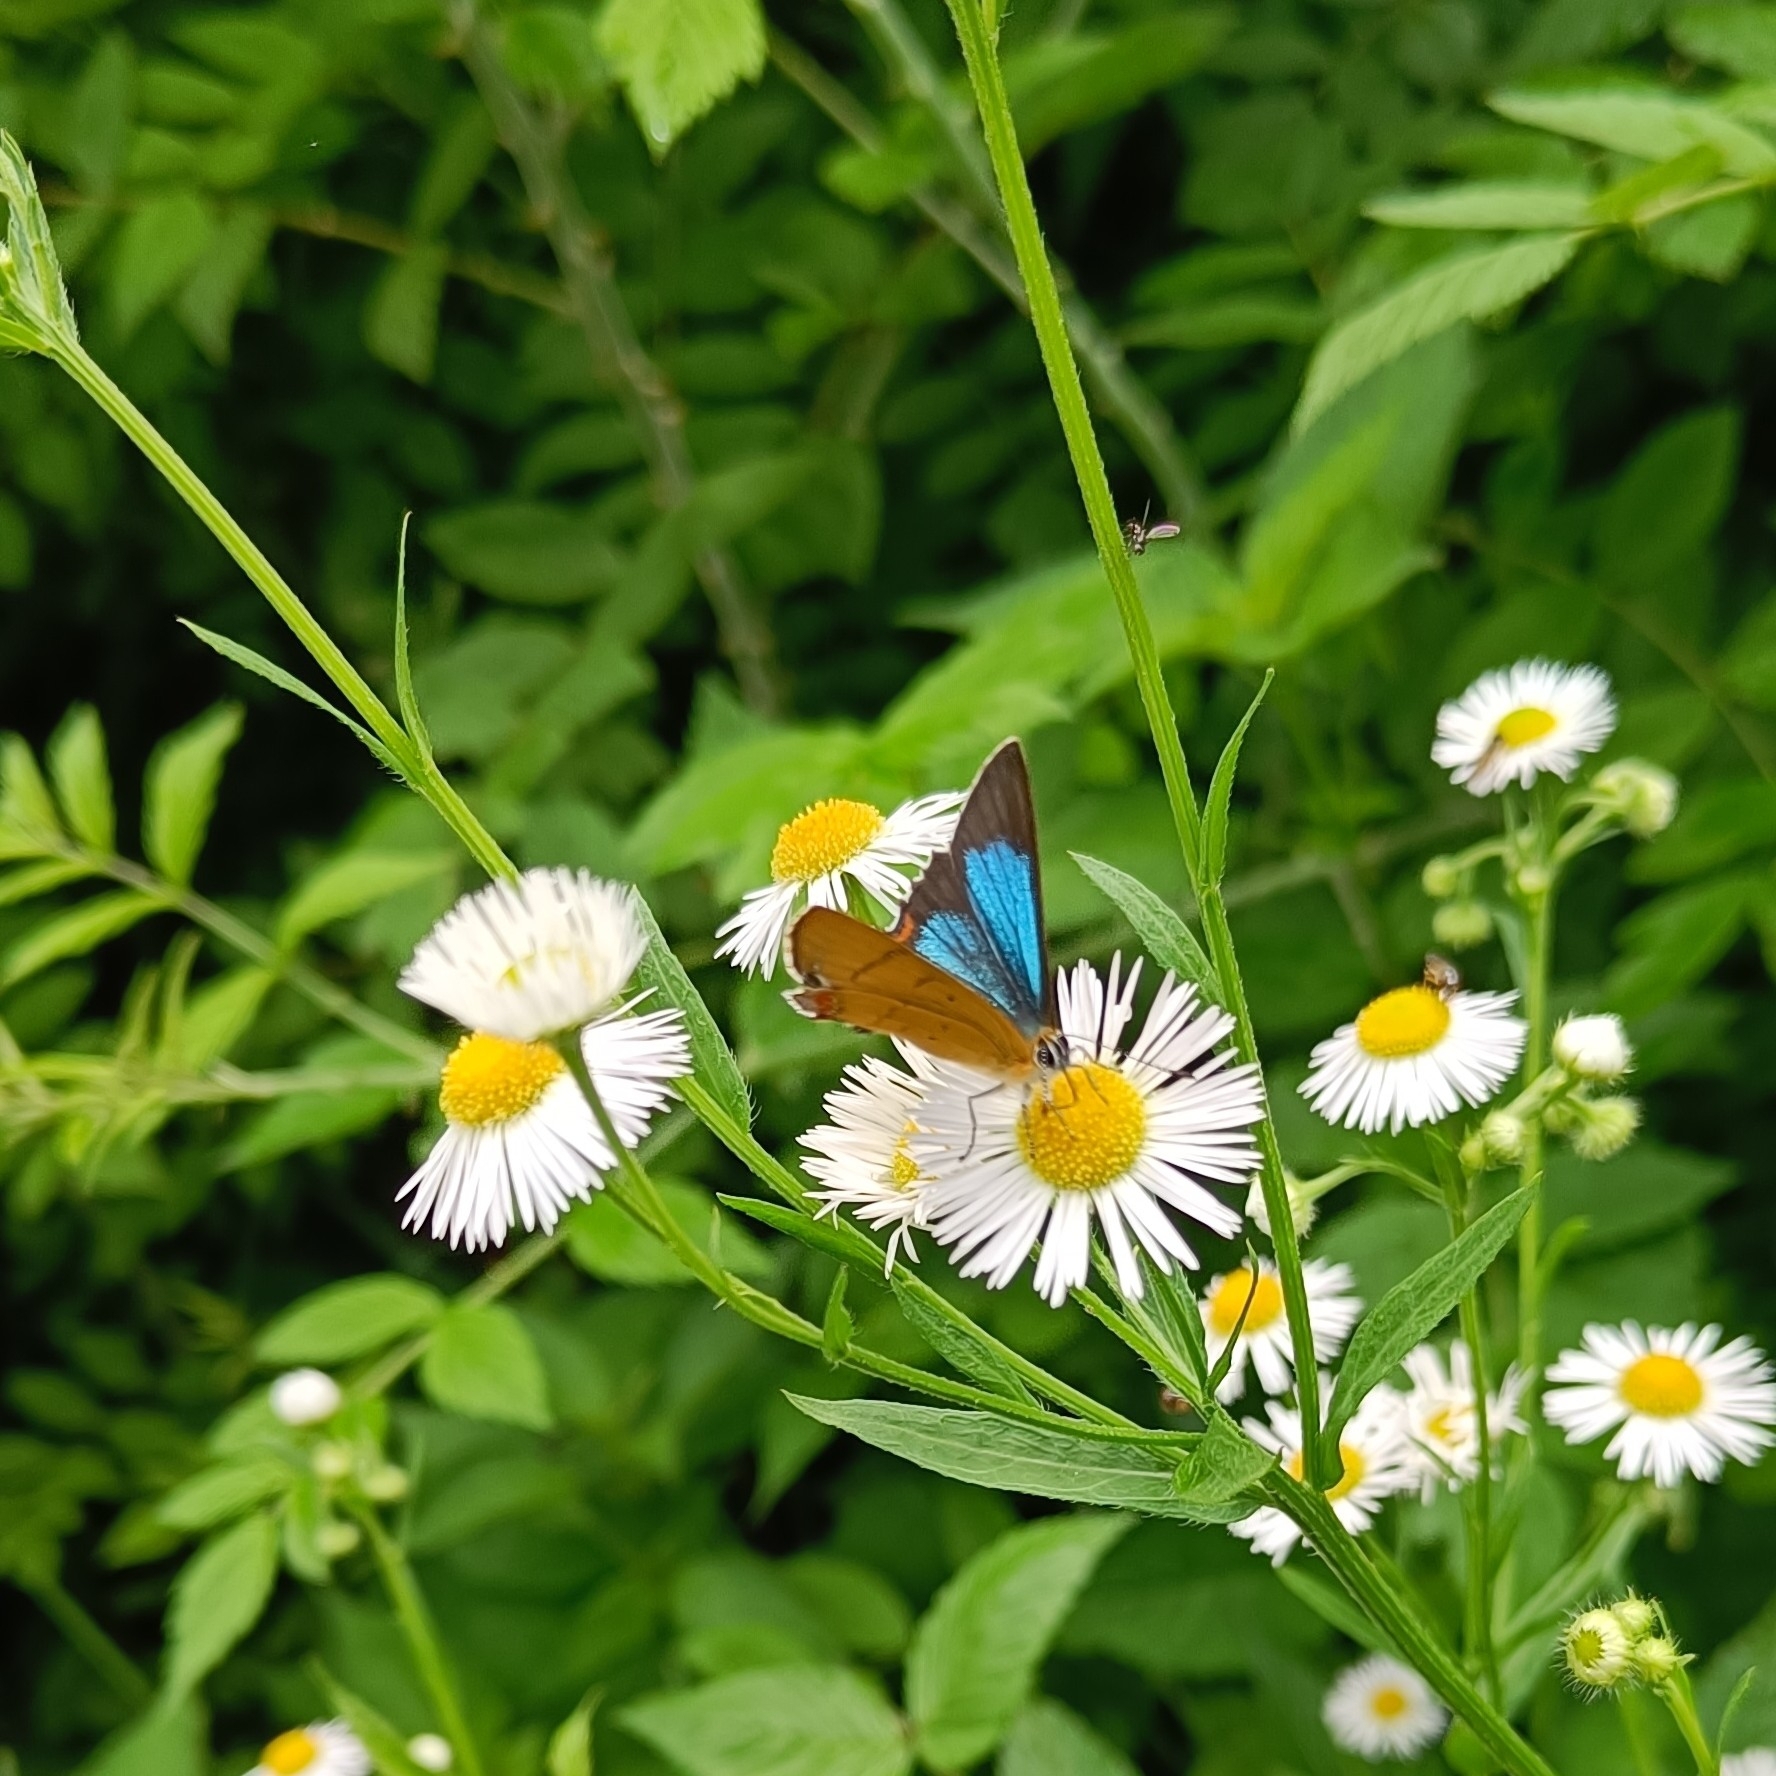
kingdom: Animalia
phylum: Arthropoda
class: Insecta
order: Lepidoptera
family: Lycaenidae
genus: Heliophorus
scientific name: Heliophorus
